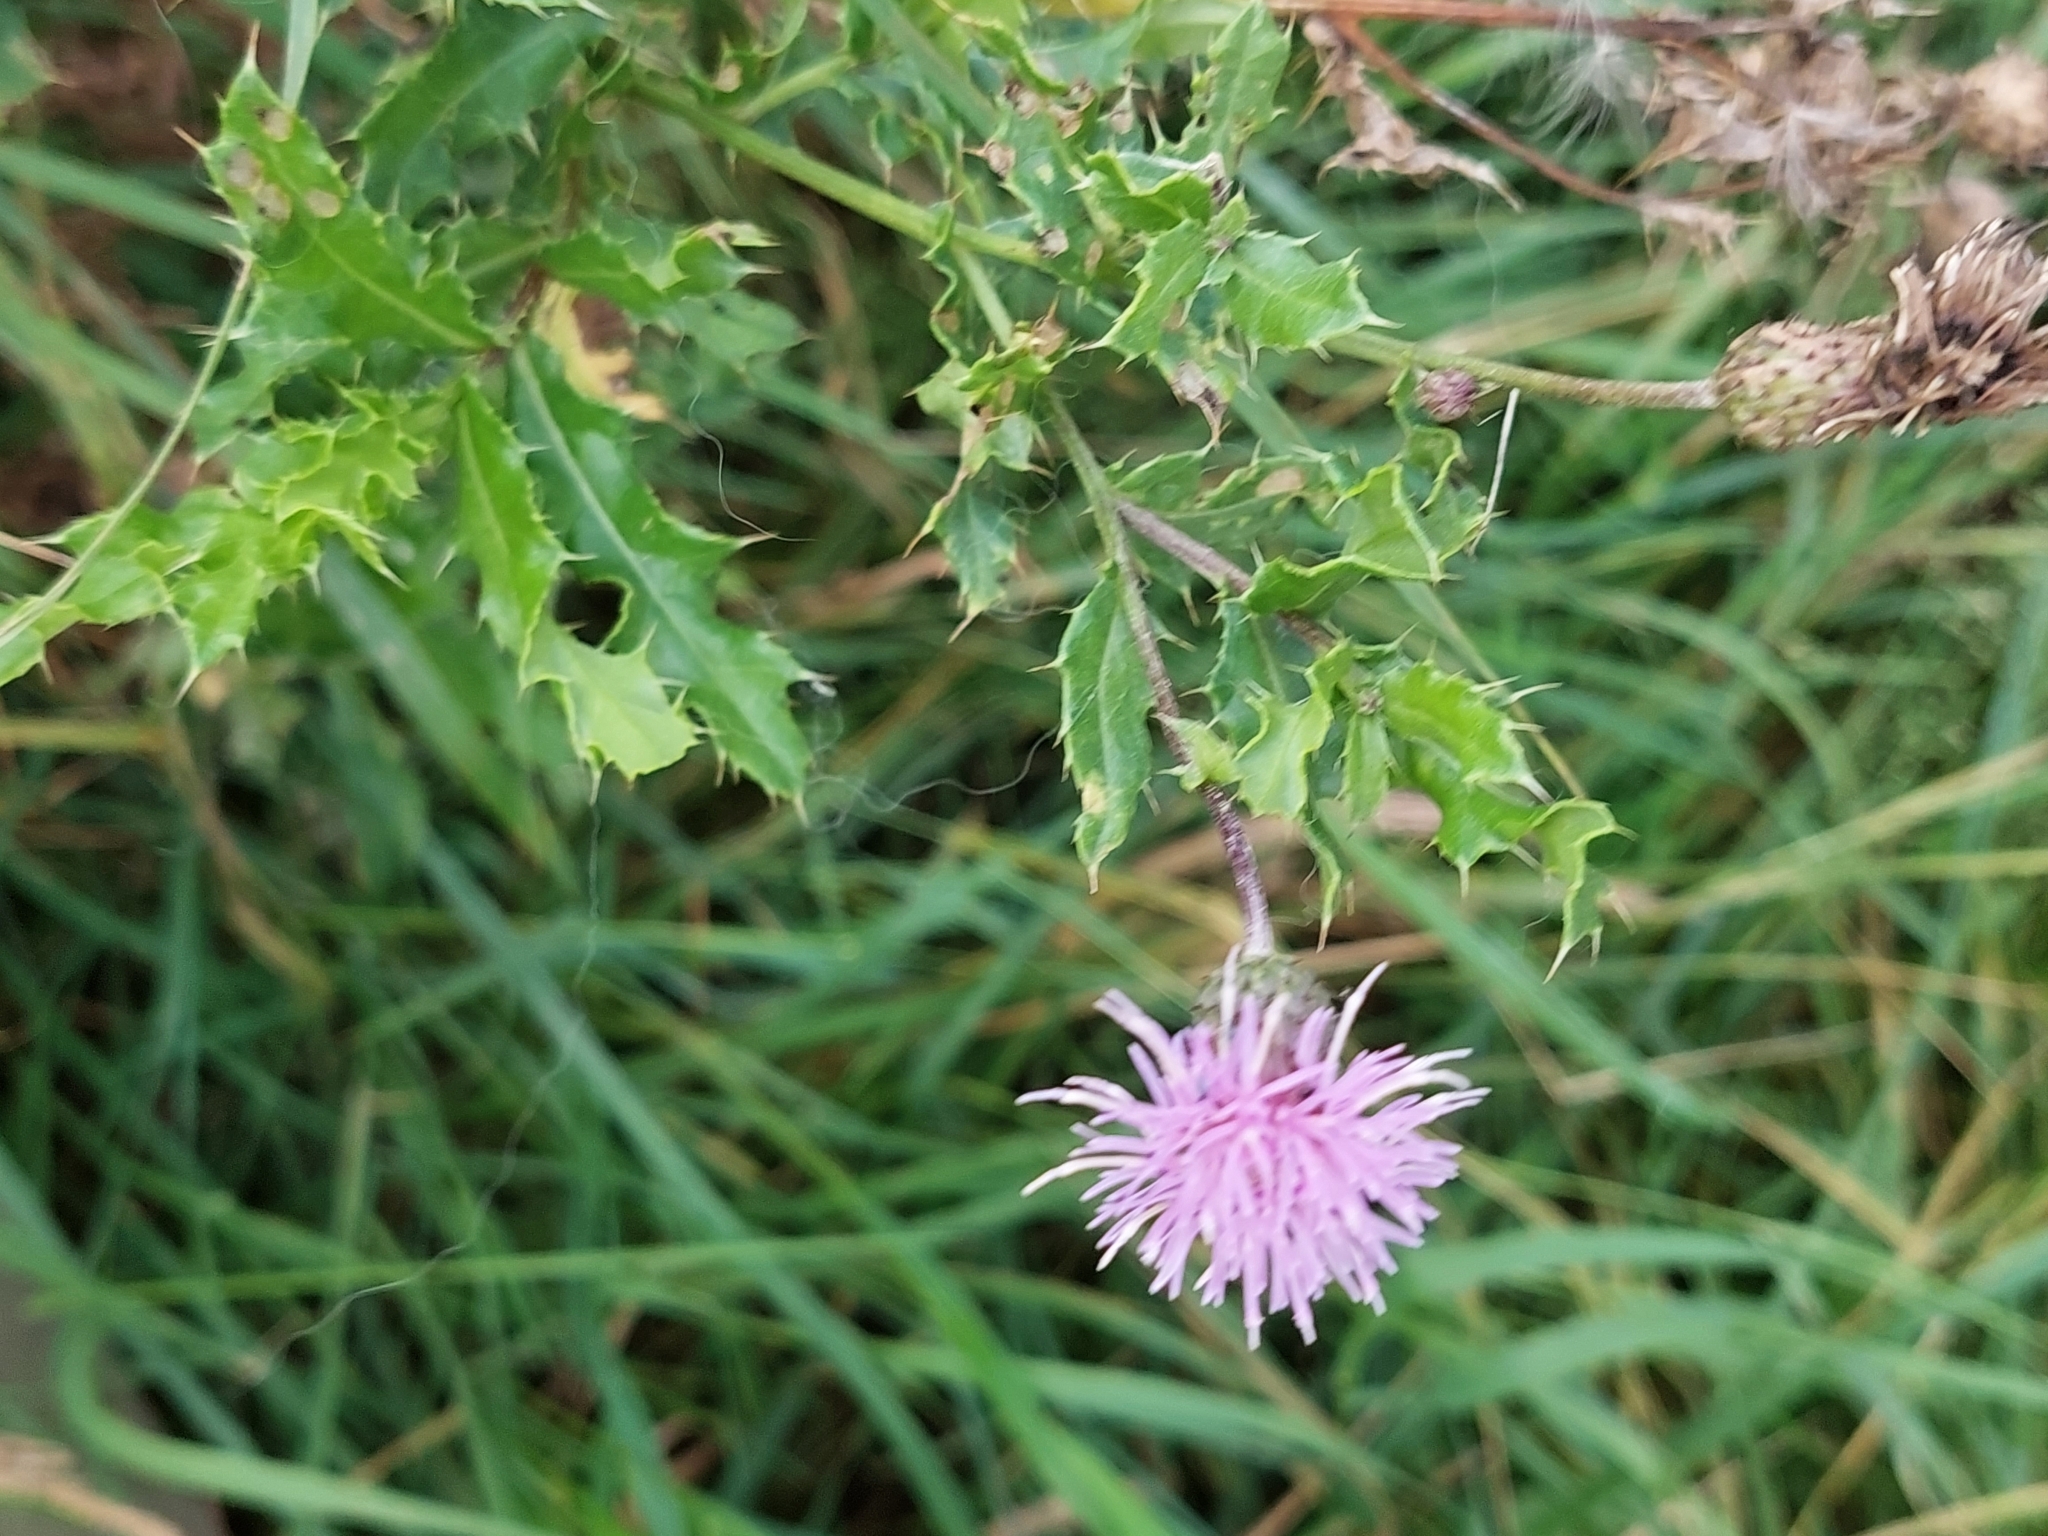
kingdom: Plantae
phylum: Tracheophyta
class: Magnoliopsida
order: Asterales
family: Asteraceae
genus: Cirsium
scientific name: Cirsium arvense
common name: Creeping thistle
